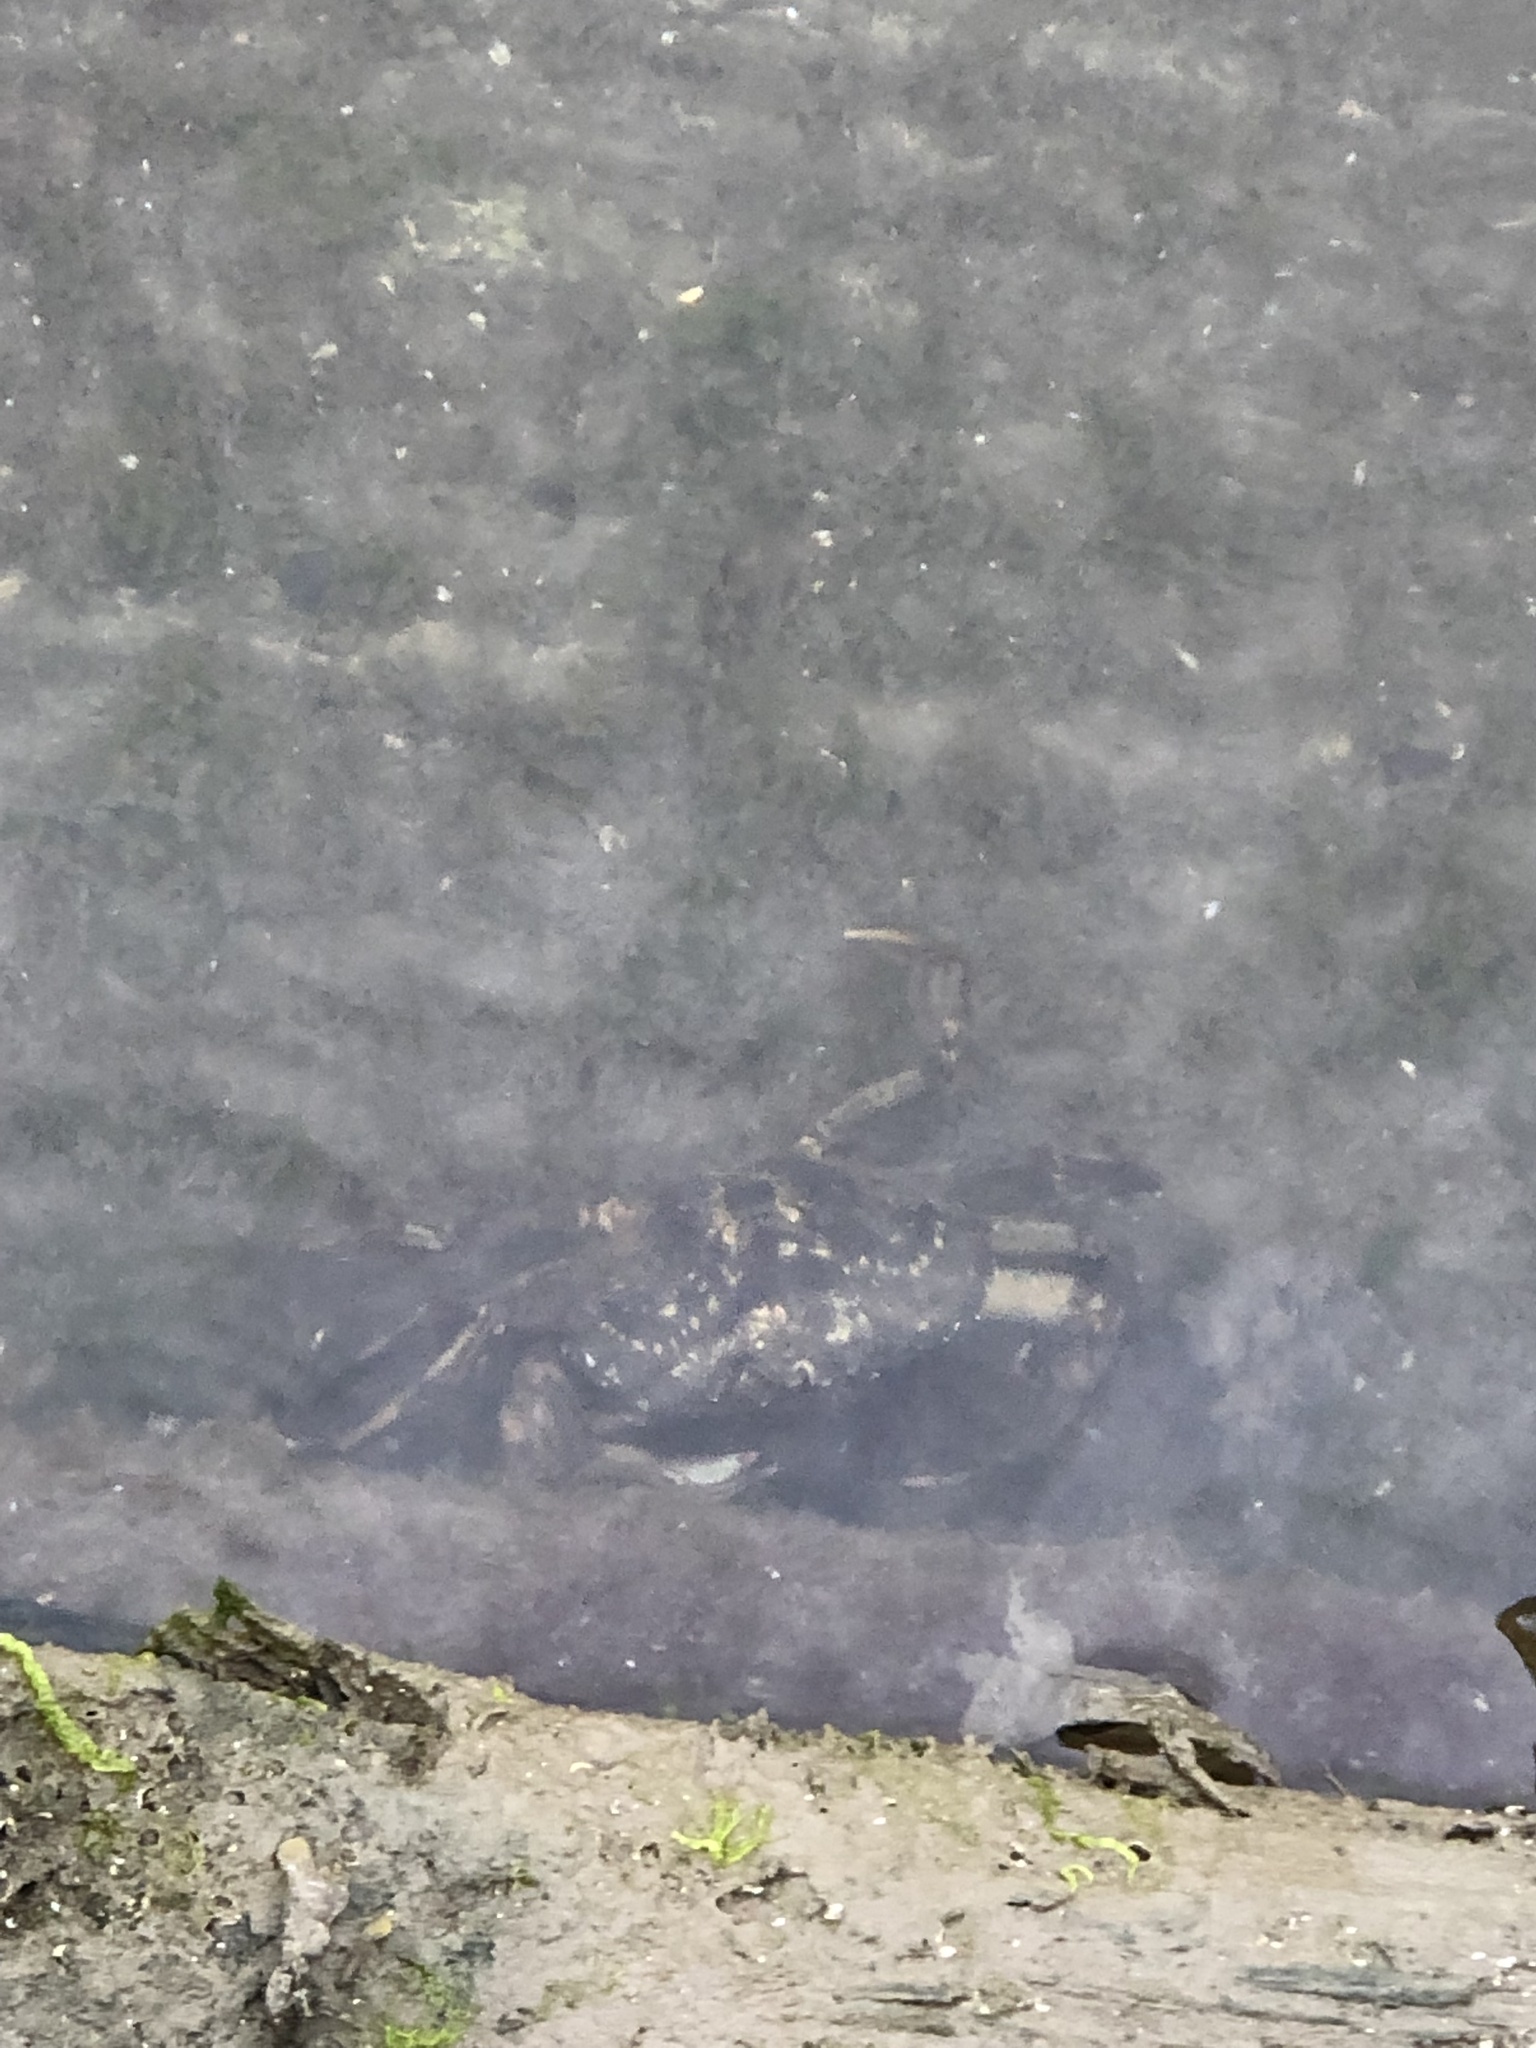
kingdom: Animalia
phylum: Arthropoda
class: Malacostraca
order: Decapoda
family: Carcinidae
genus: Carcinus
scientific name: Carcinus maenas
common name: European green crab
